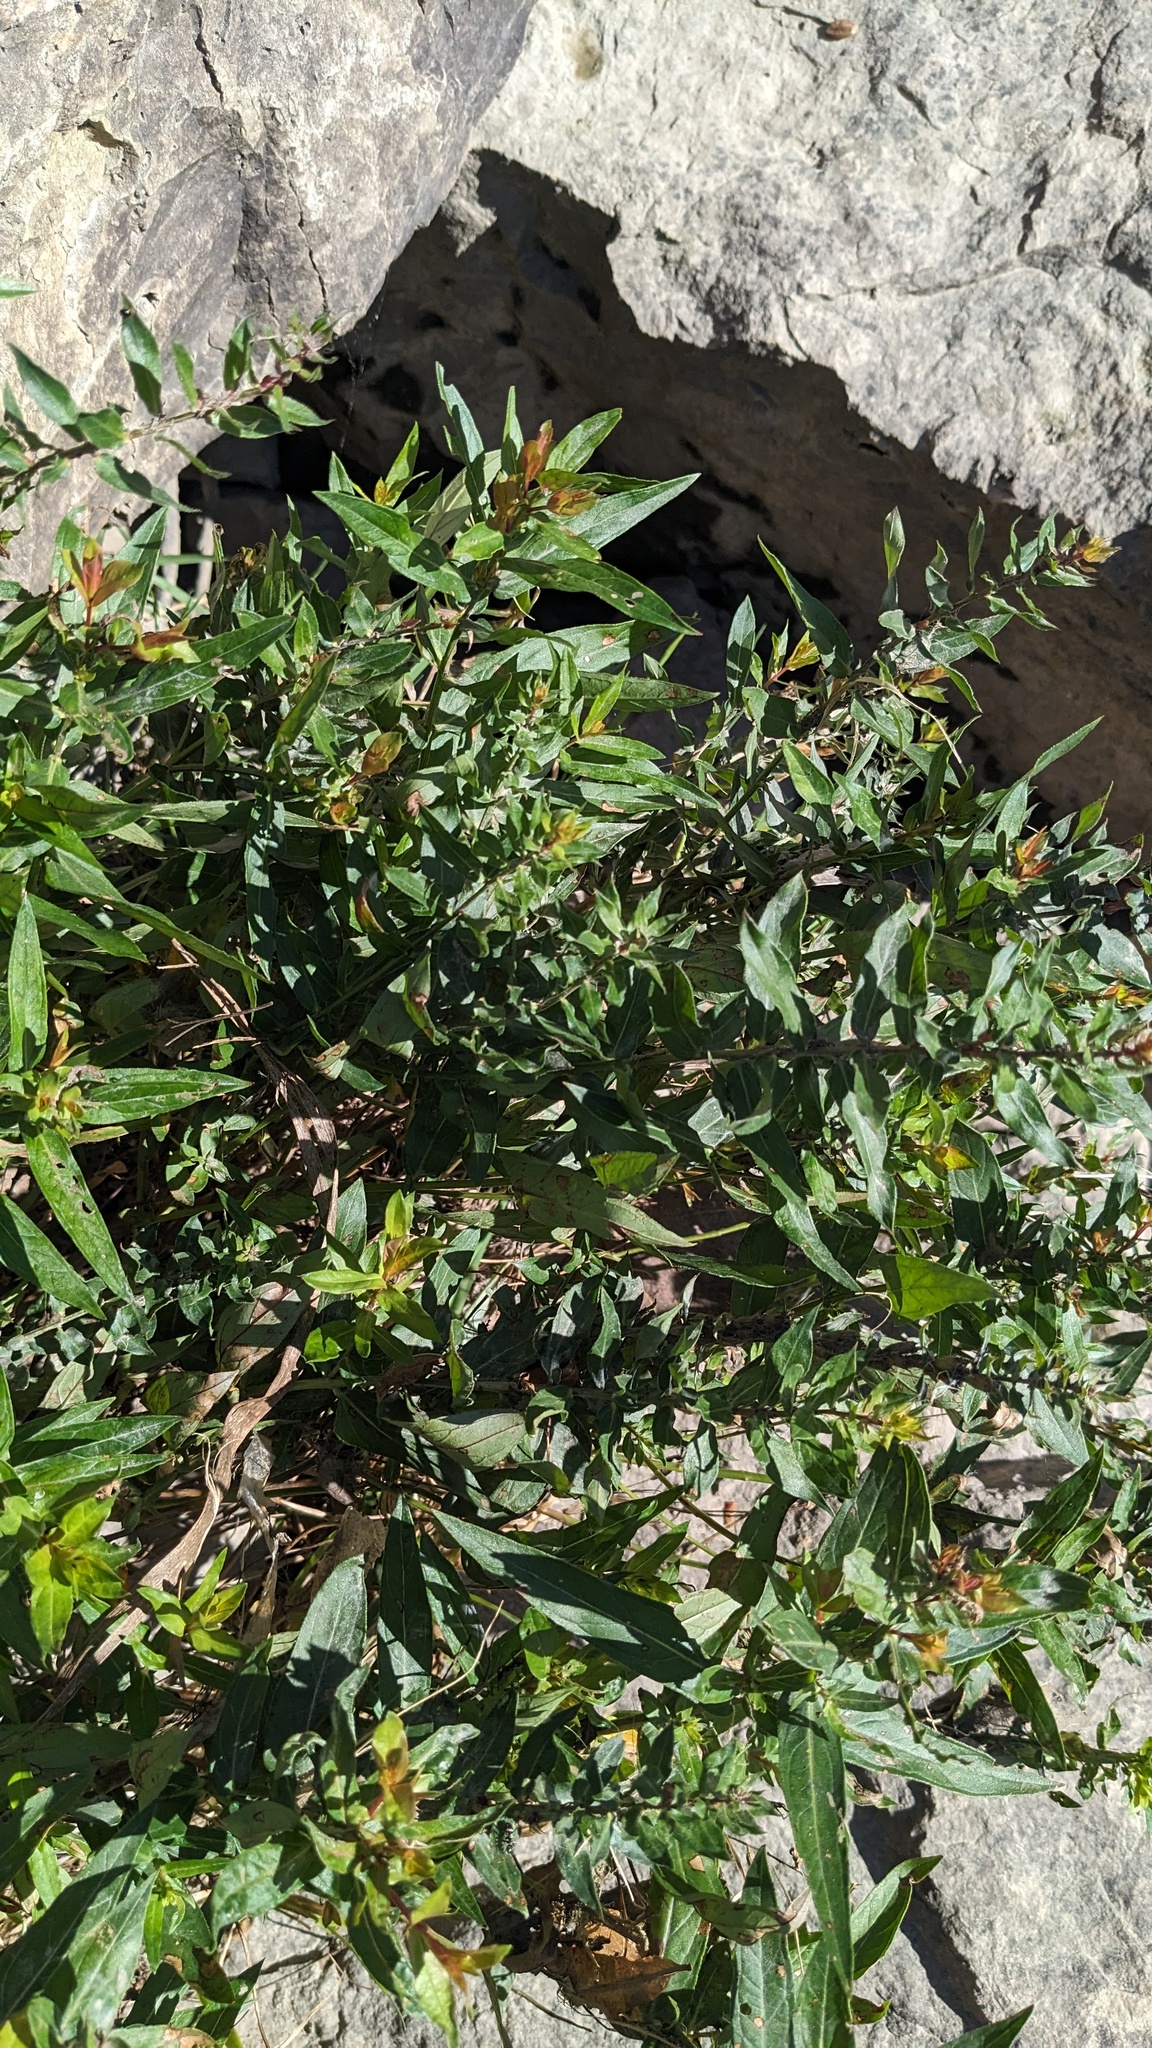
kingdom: Plantae
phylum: Tracheophyta
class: Magnoliopsida
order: Myrtales
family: Lythraceae
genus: Lythrum
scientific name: Lythrum salicaria
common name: Purple loosestrife
